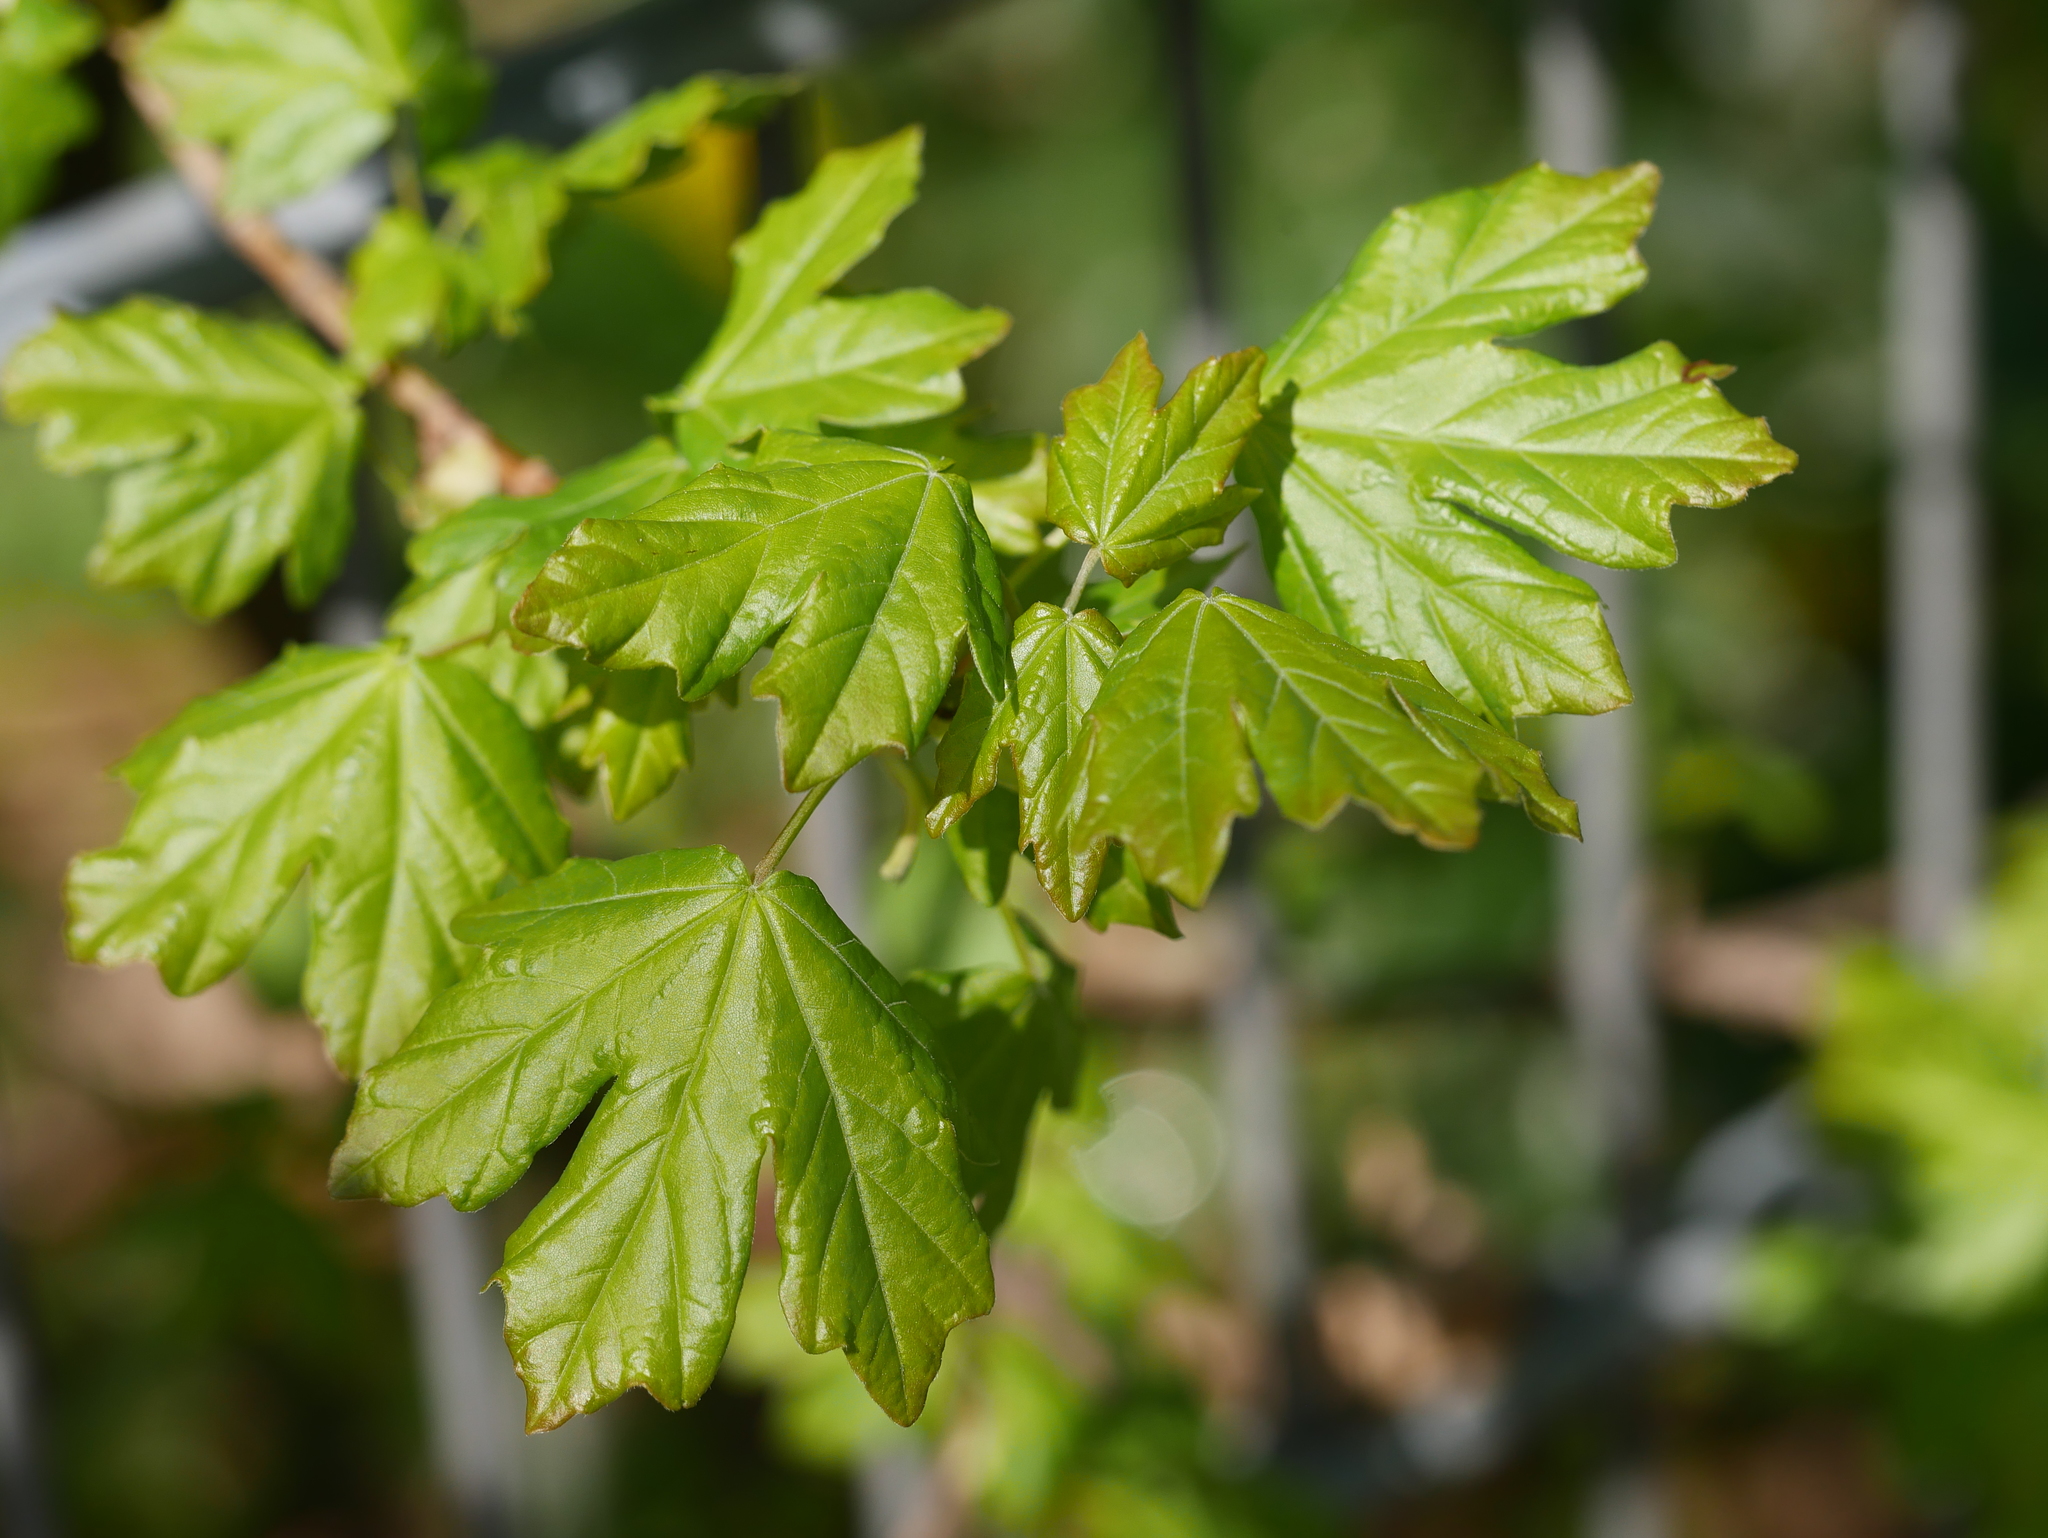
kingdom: Plantae
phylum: Tracheophyta
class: Magnoliopsida
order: Sapindales
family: Sapindaceae
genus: Acer
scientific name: Acer campestre
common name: Field maple
